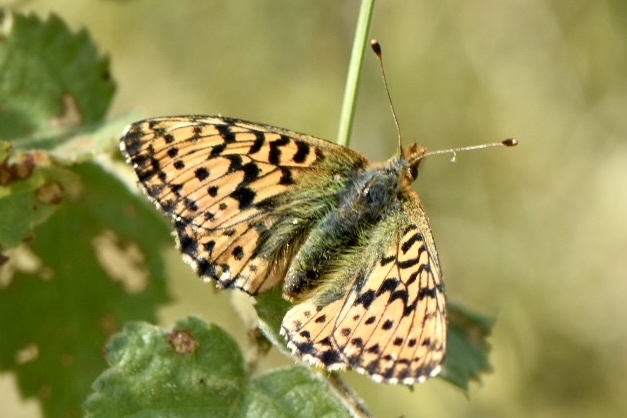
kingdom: Animalia
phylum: Arthropoda
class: Insecta
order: Lepidoptera
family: Nymphalidae
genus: Boloria
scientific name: Boloria aquilonaris
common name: Cranberry fritillary
